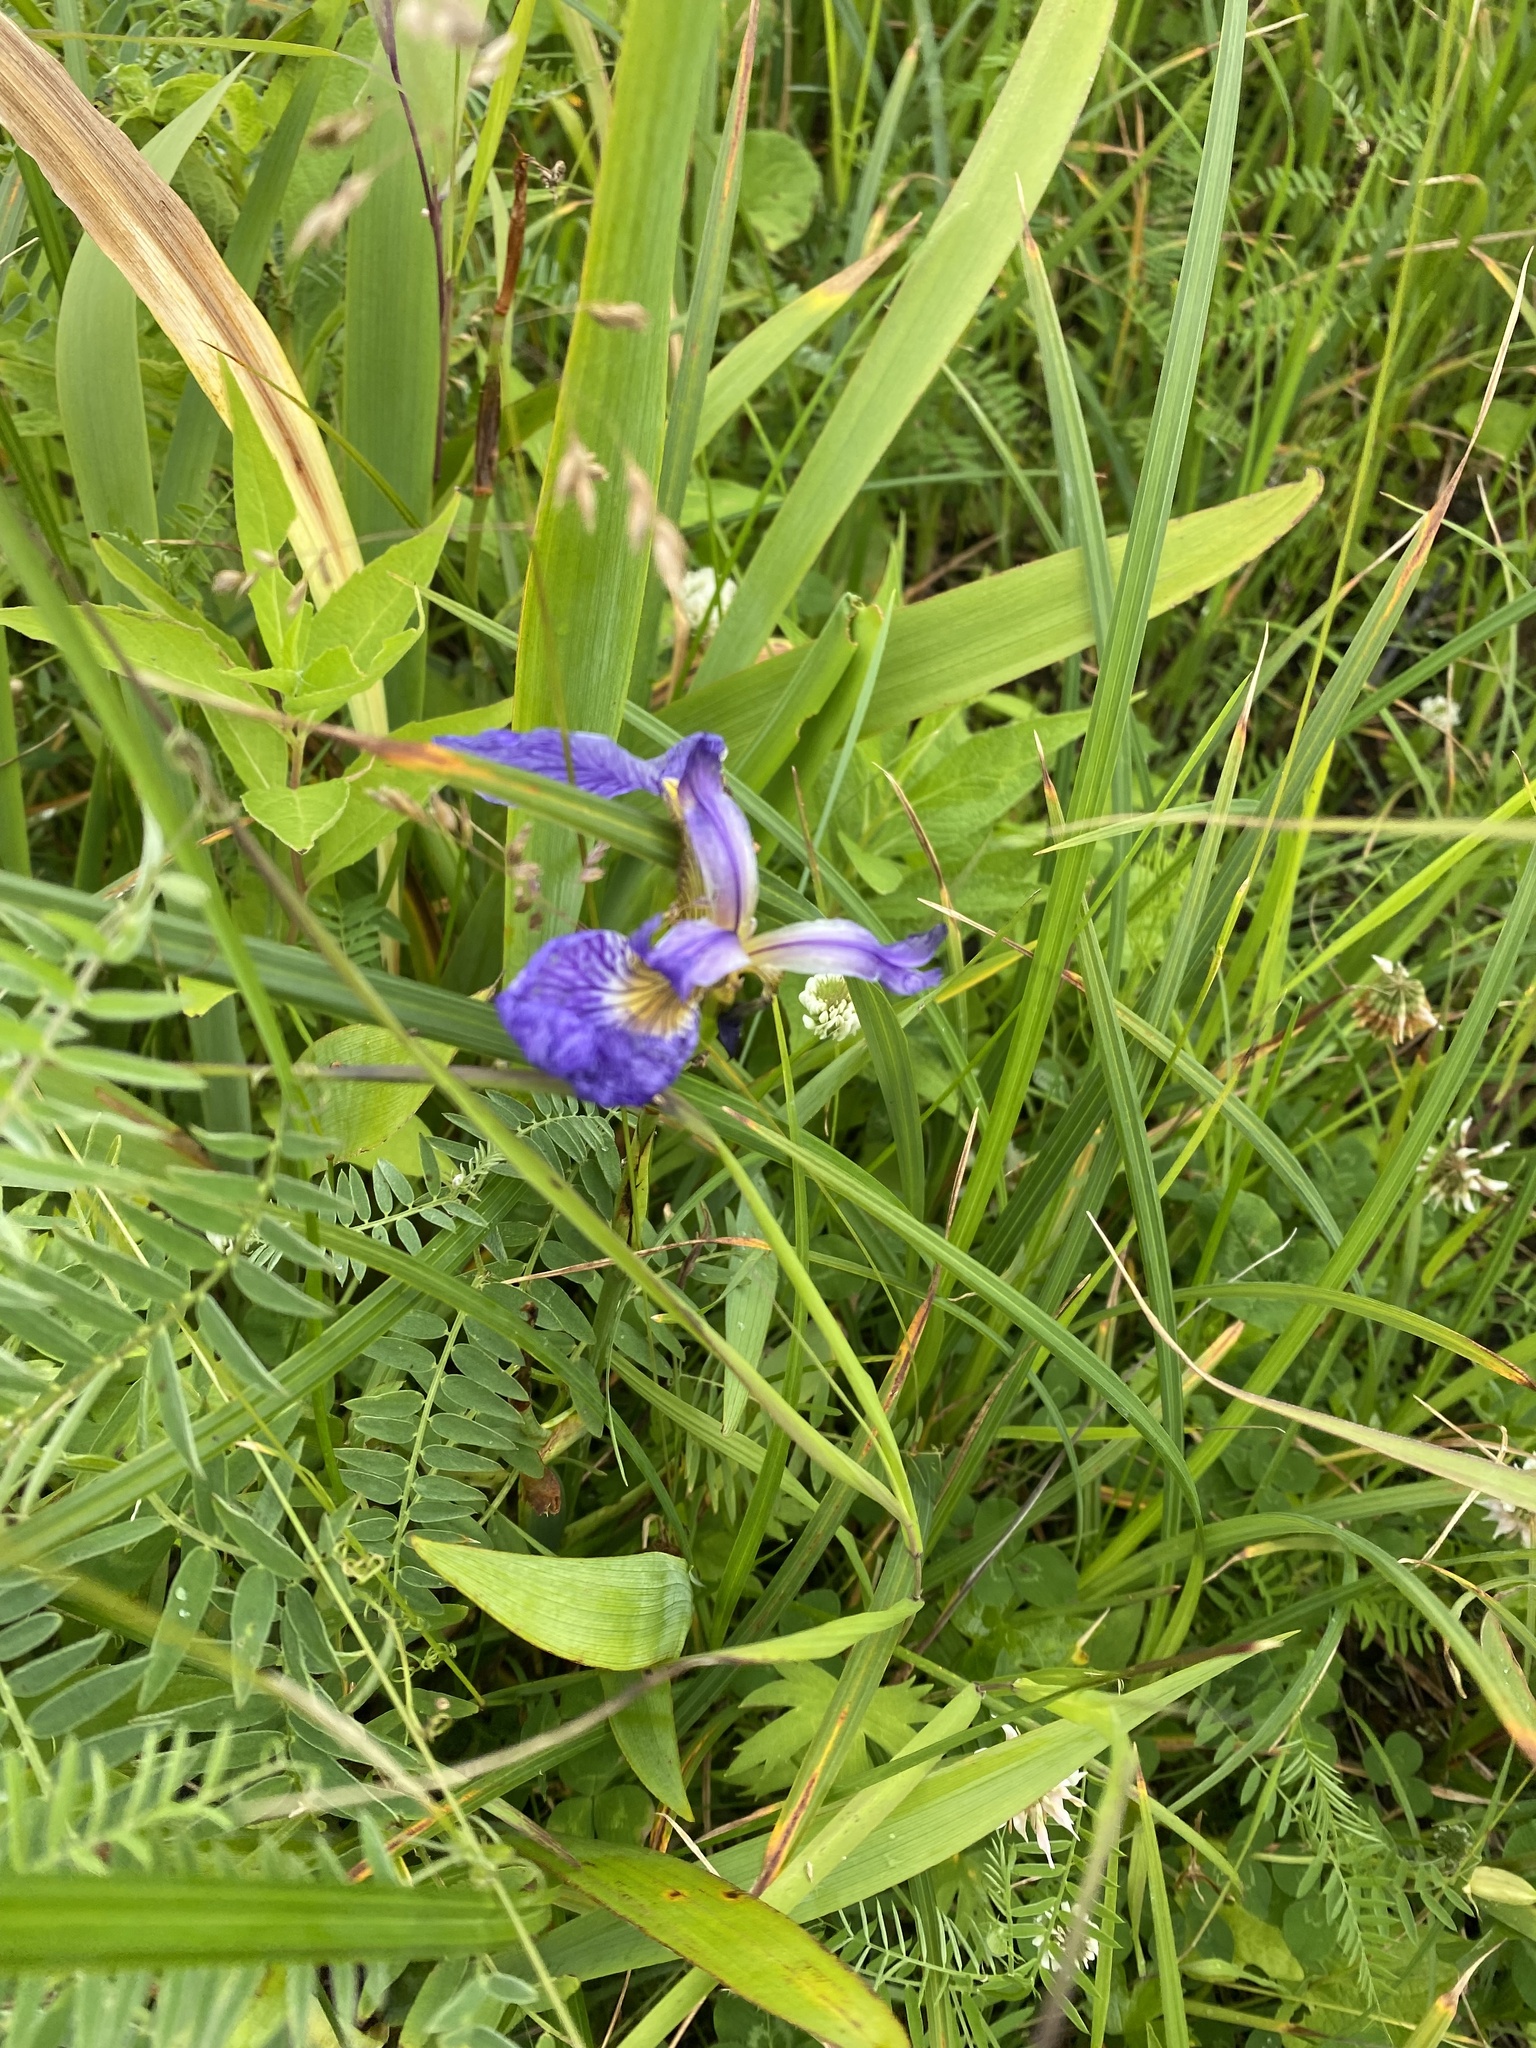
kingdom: Plantae
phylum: Tracheophyta
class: Liliopsida
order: Asparagales
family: Iridaceae
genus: Iris
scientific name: Iris setosa
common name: Arctic blue flag
